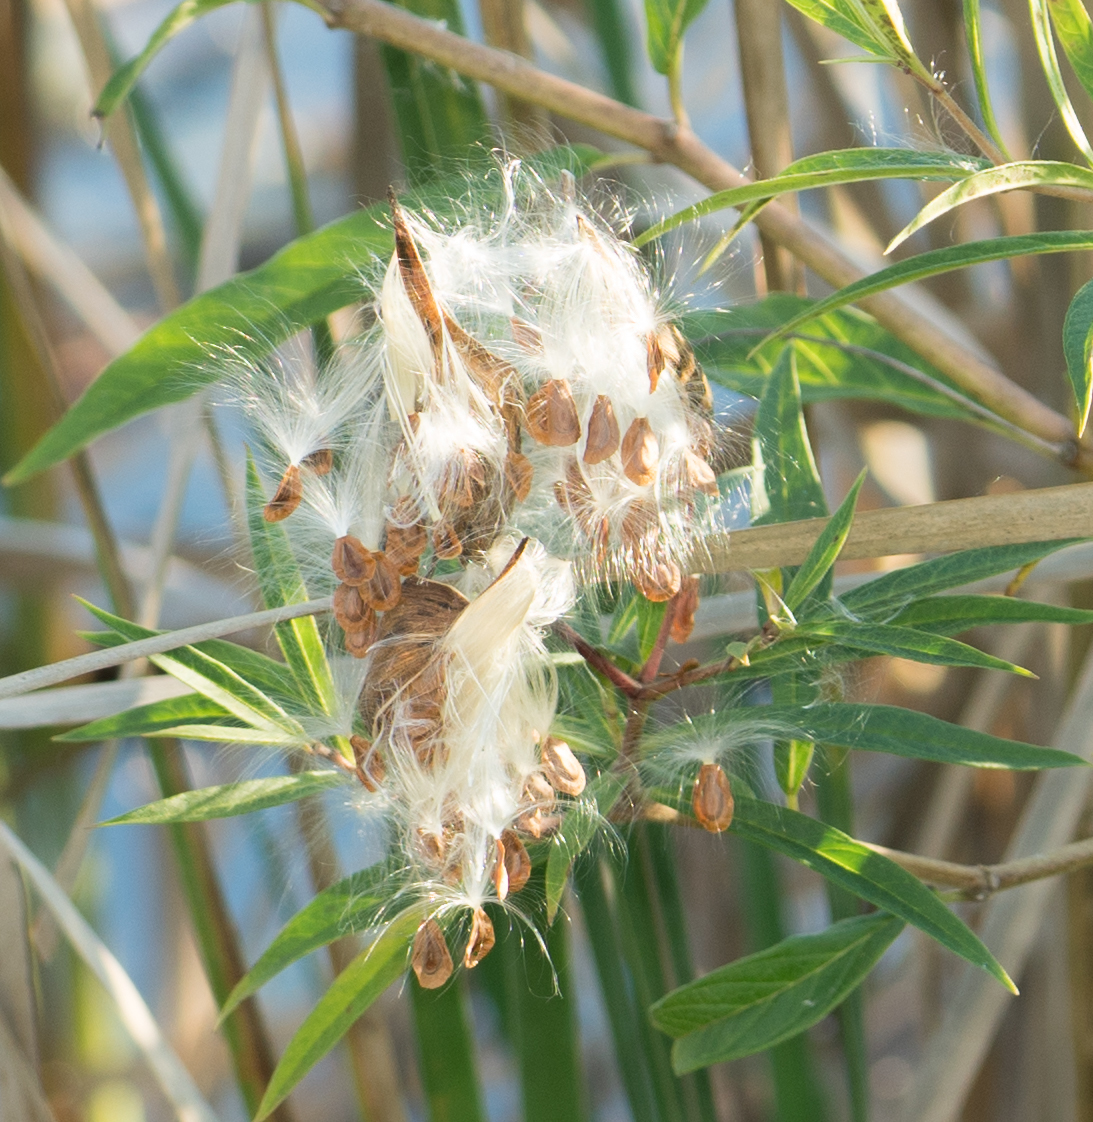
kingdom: Plantae
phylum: Tracheophyta
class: Magnoliopsida
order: Gentianales
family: Apocynaceae
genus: Asclepias
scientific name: Asclepias incarnata
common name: Swamp milkweed
